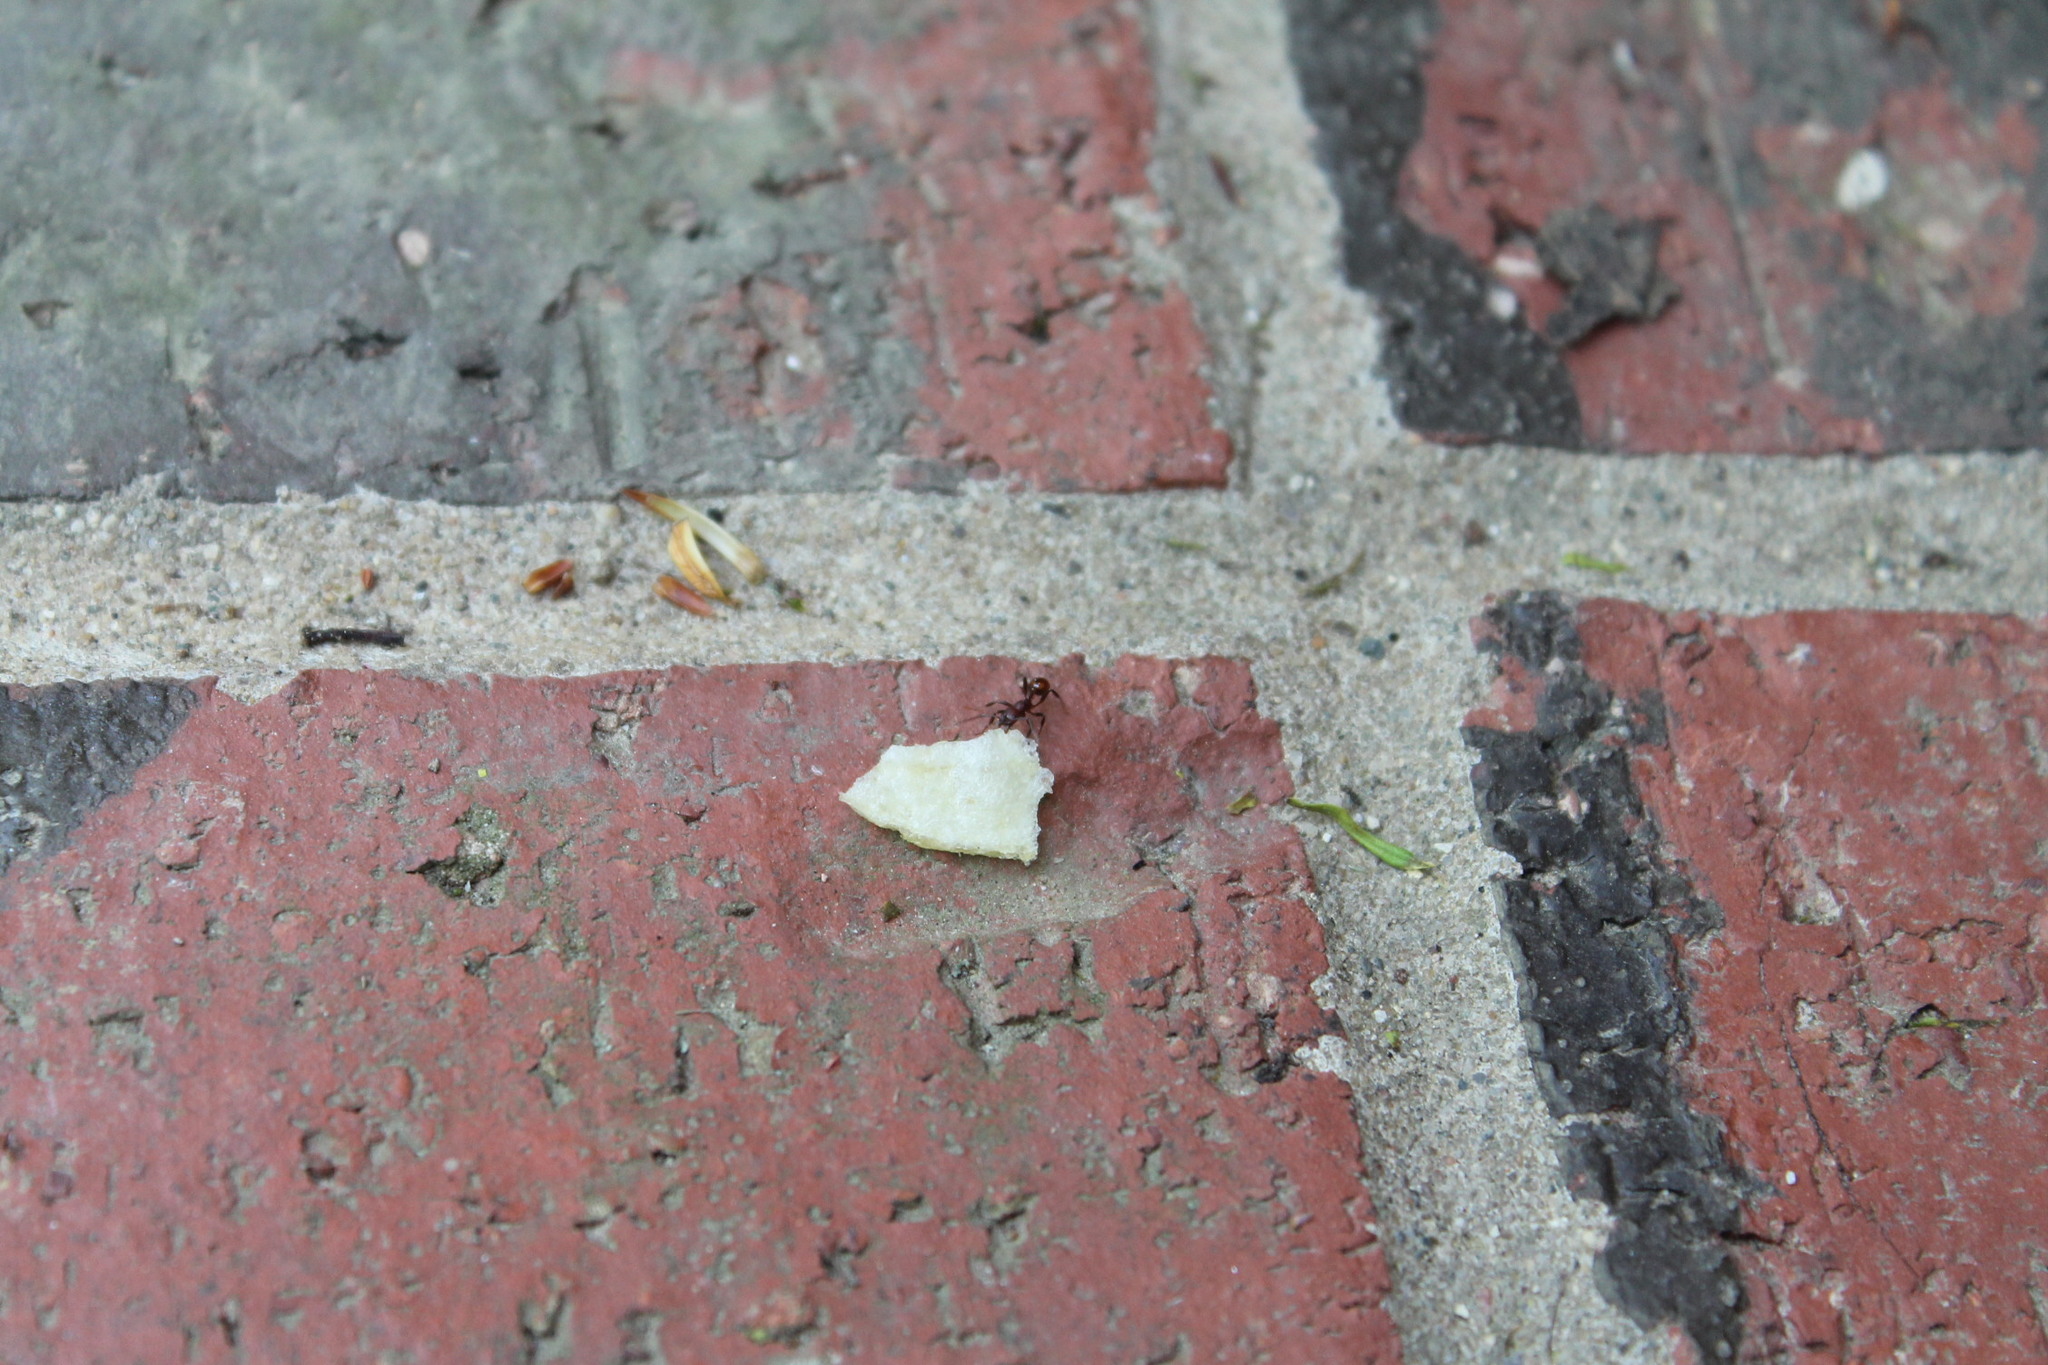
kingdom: Animalia
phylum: Arthropoda
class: Insecta
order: Hymenoptera
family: Formicidae
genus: Aphaenogaster
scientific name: Aphaenogaster tennesseensis
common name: Tennessee thread-waisted ant
